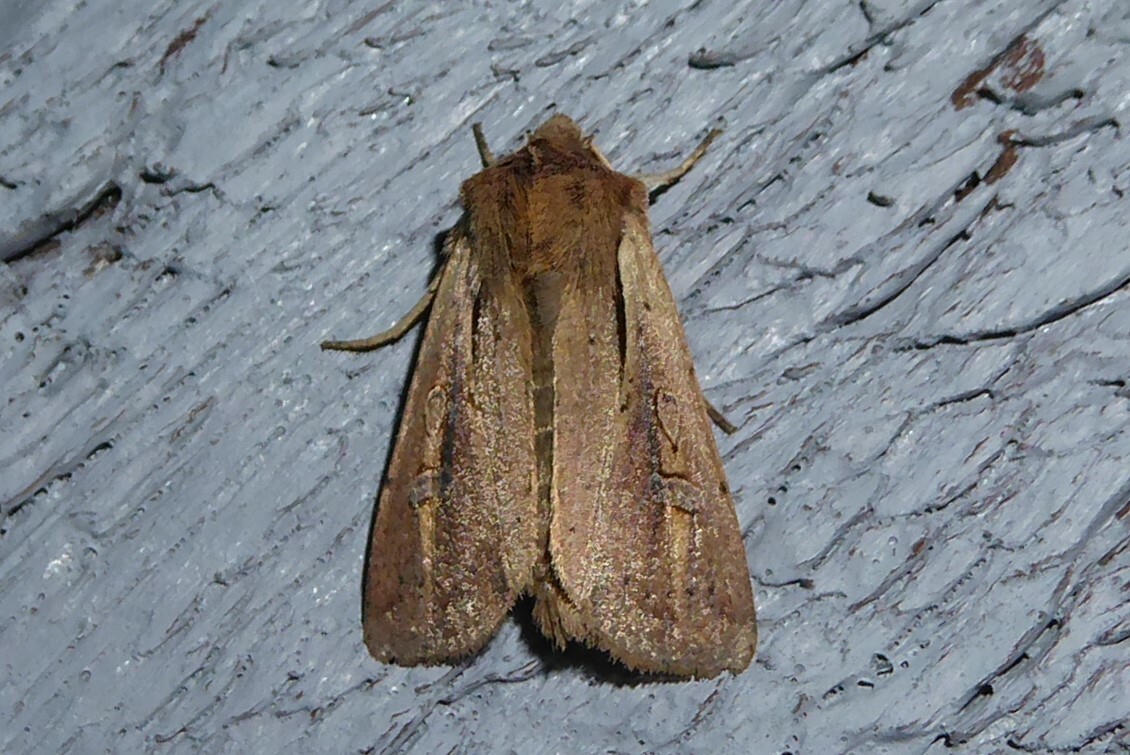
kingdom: Animalia
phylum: Arthropoda
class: Insecta
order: Lepidoptera
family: Noctuidae
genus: Ichneutica
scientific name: Ichneutica atristriga
